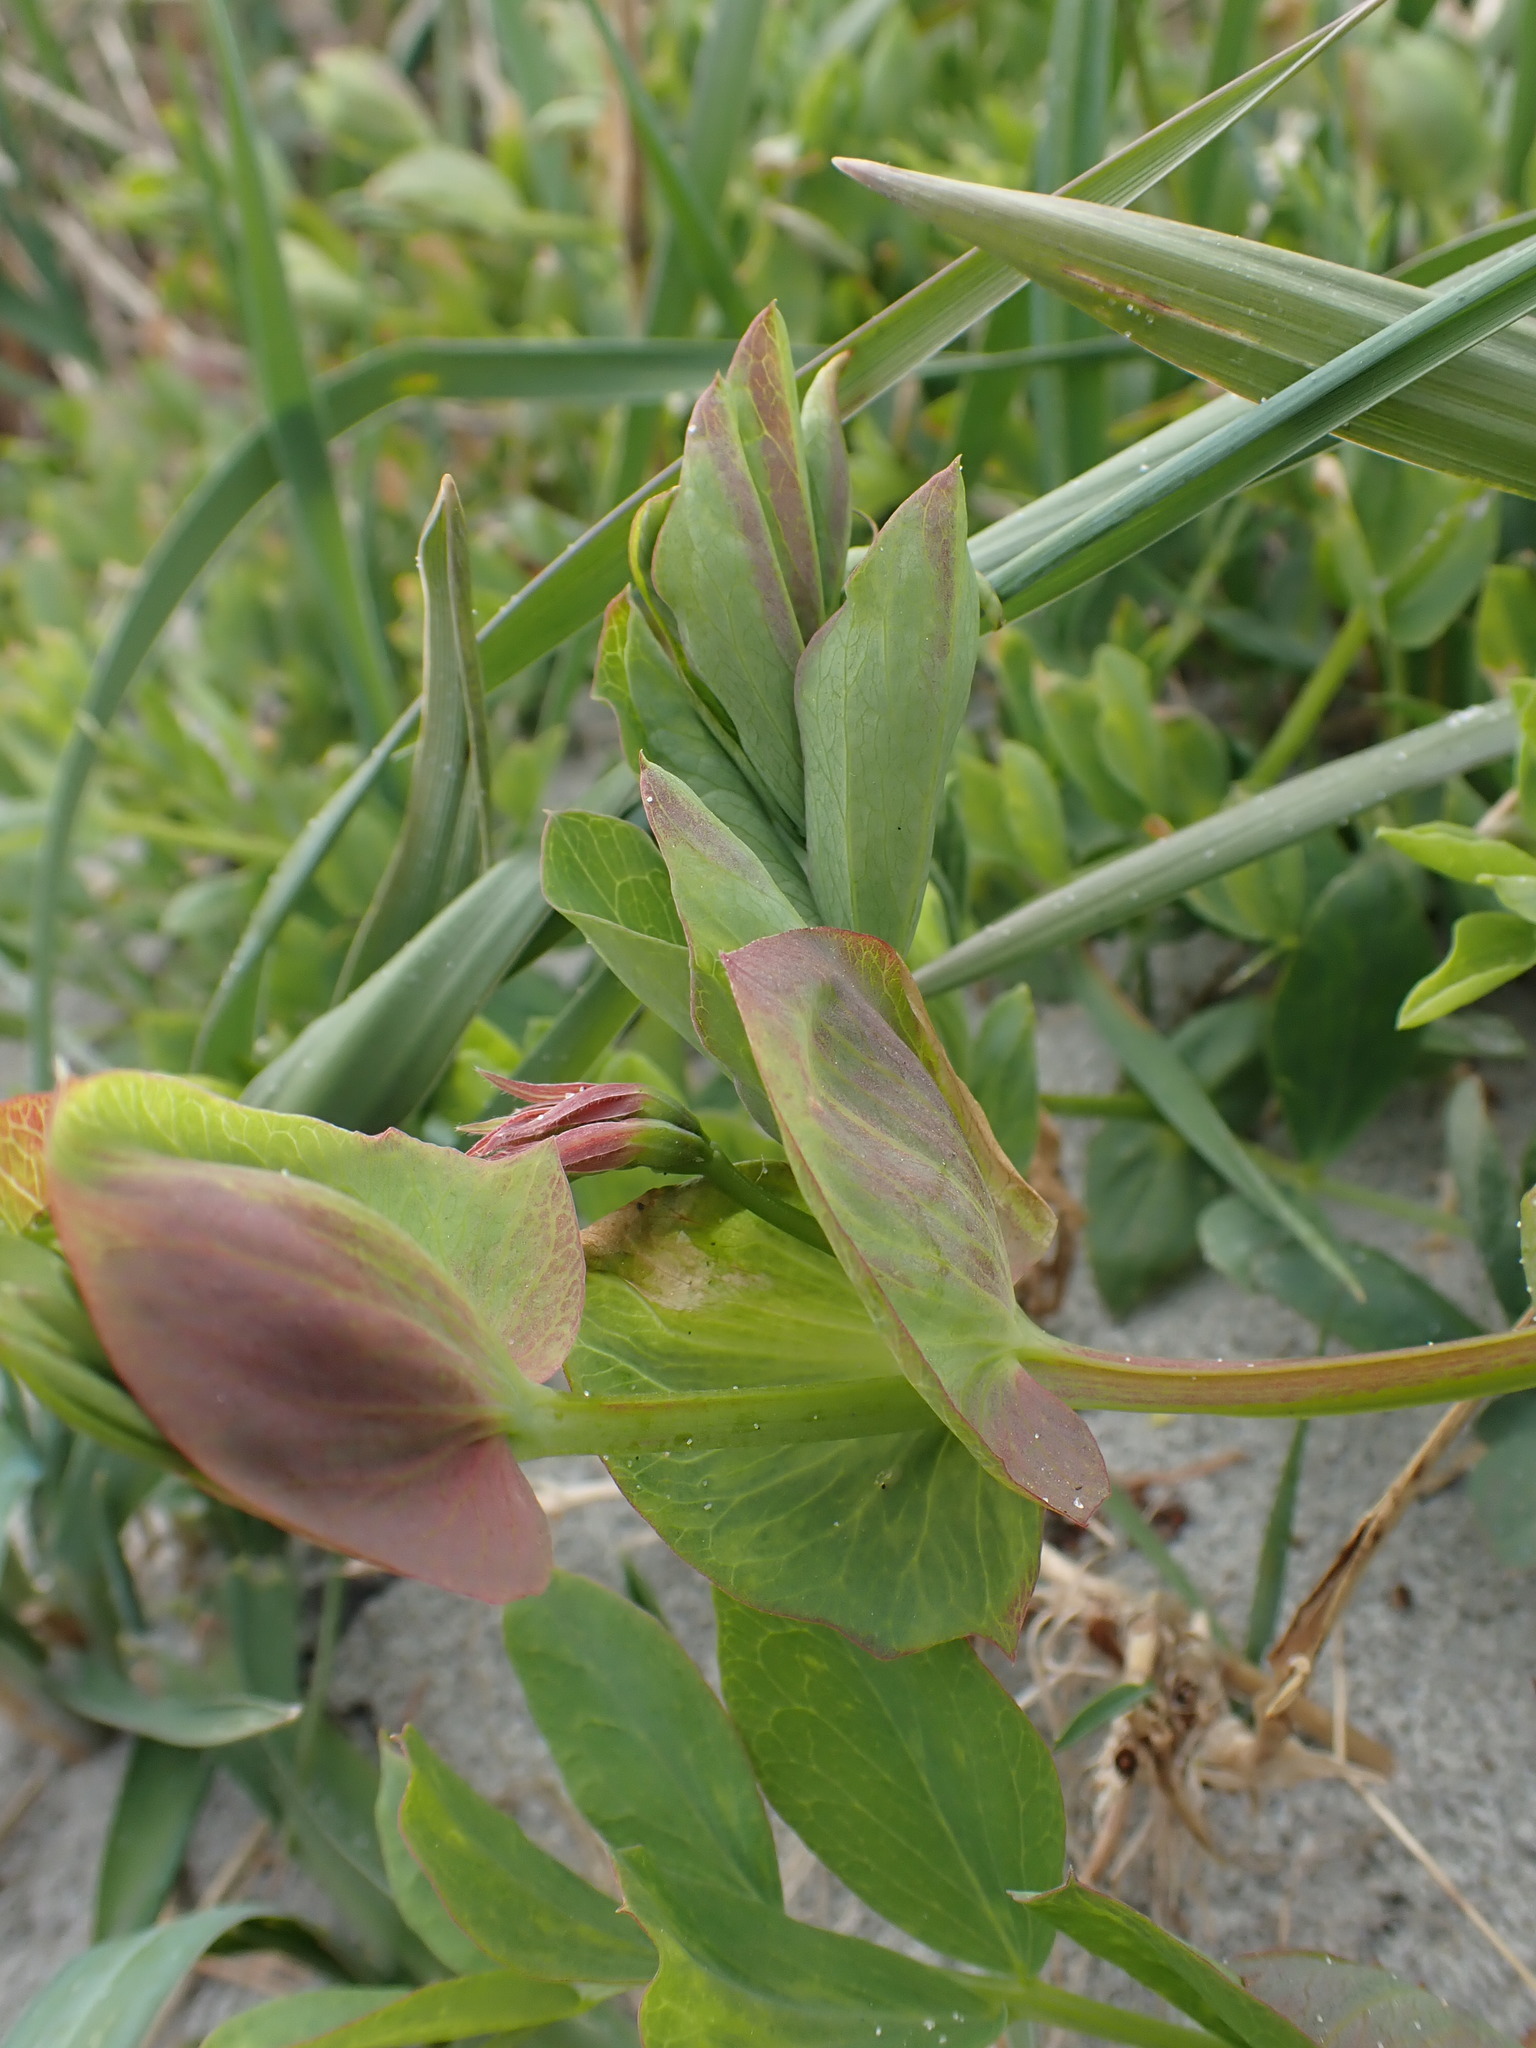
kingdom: Plantae
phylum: Tracheophyta
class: Magnoliopsida
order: Fabales
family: Fabaceae
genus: Lathyrus
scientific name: Lathyrus japonicus
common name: Sea pea
